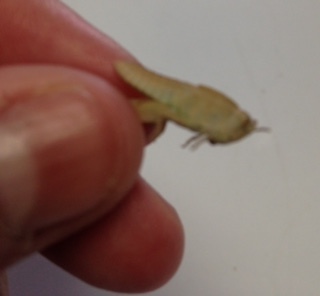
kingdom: Animalia
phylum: Arthropoda
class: Insecta
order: Orthoptera
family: Acrididae
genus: Chortophaga
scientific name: Chortophaga viridifasciata
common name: Green-striped grasshopper
